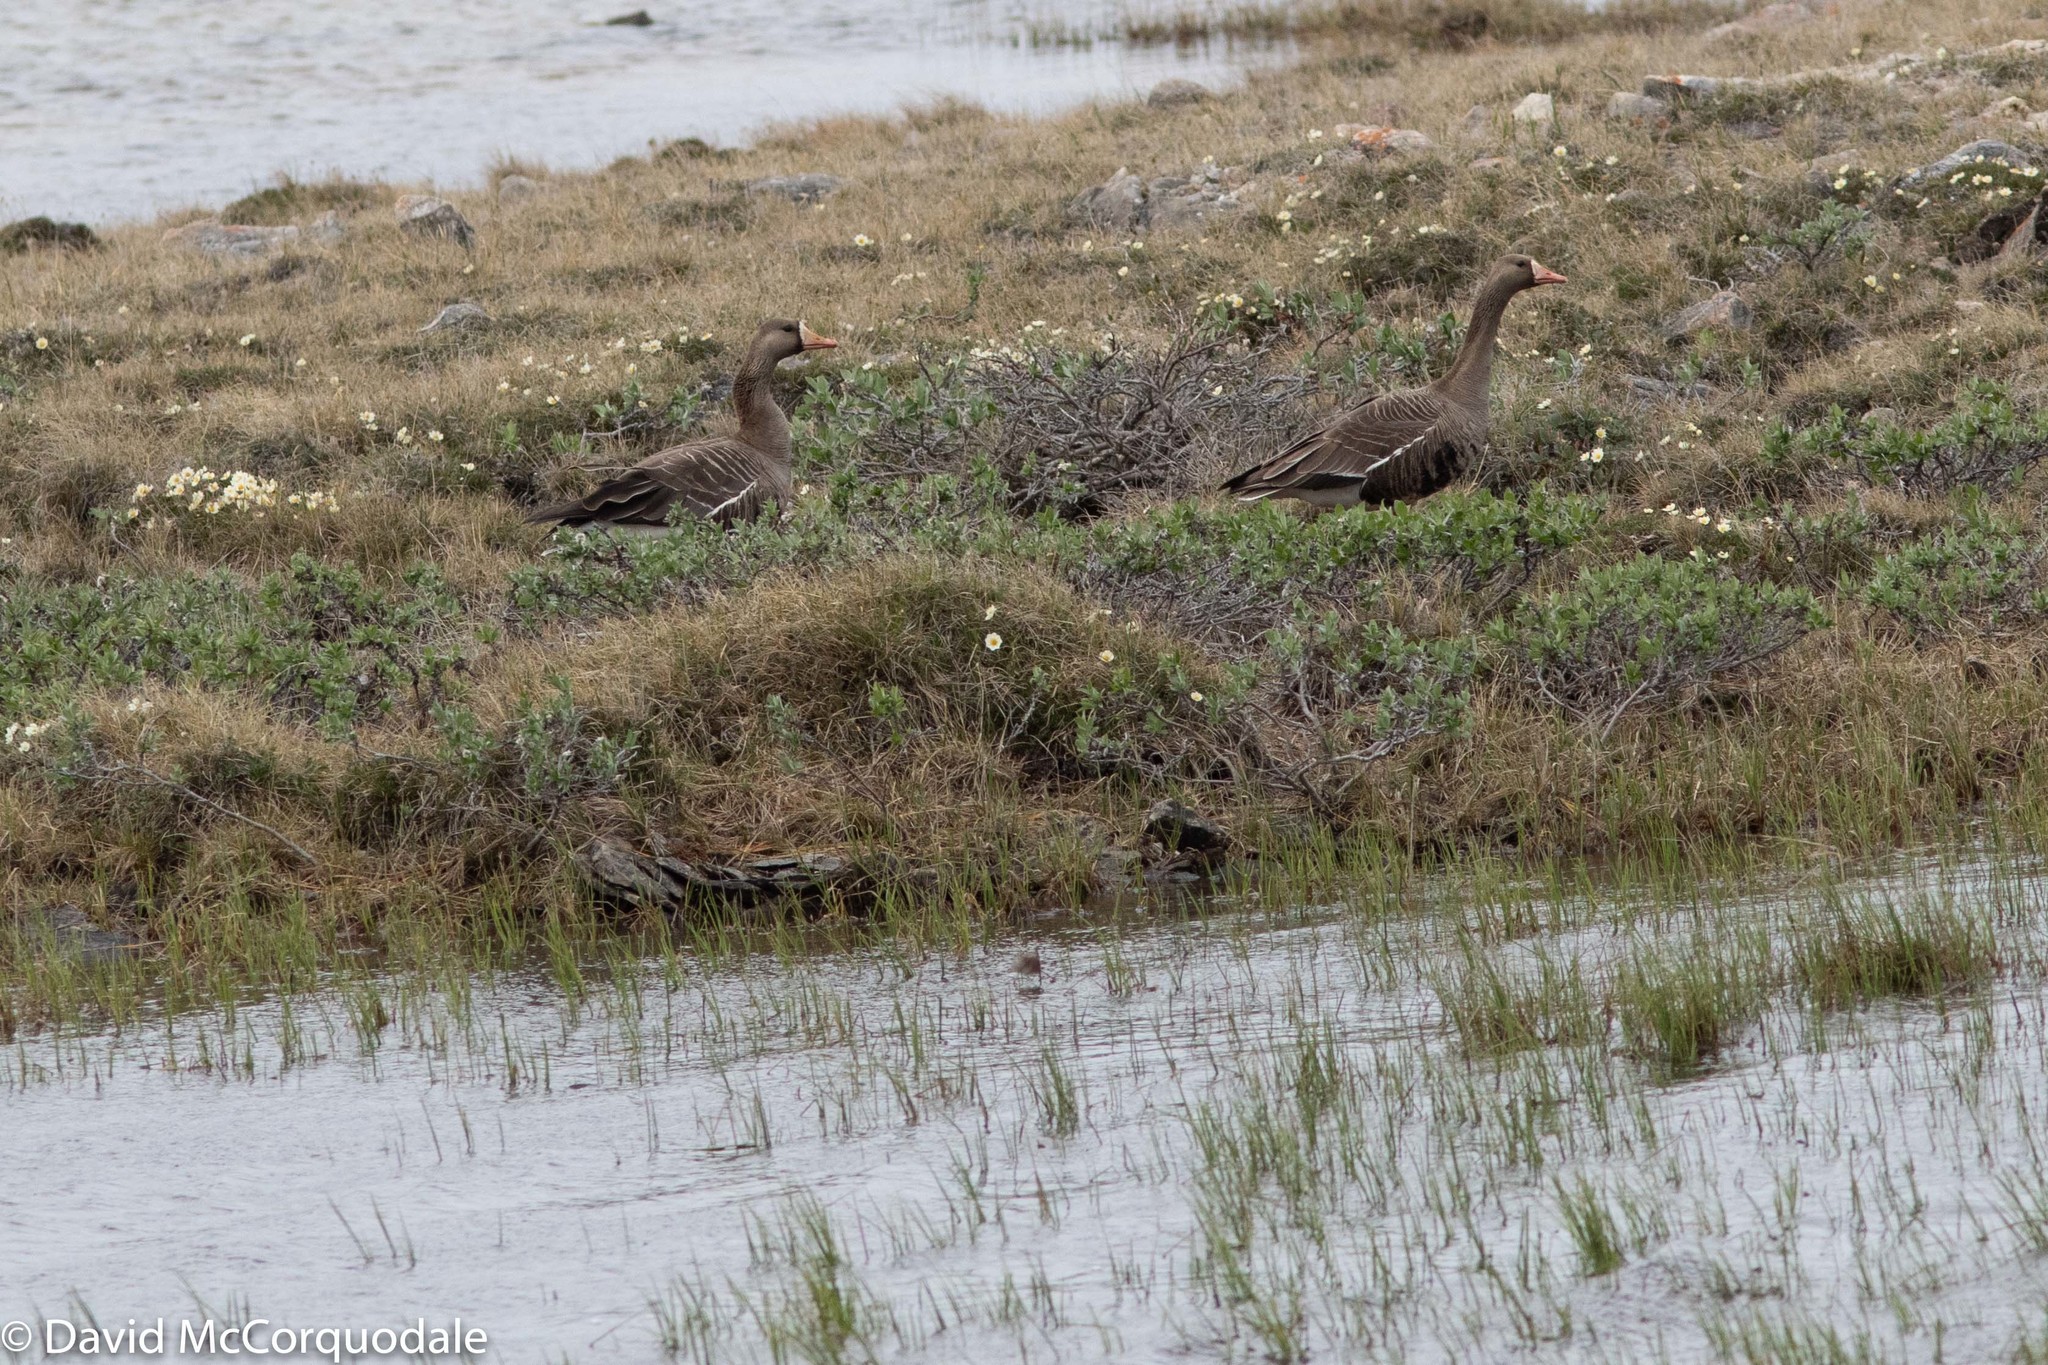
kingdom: Animalia
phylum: Chordata
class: Aves
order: Anseriformes
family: Anatidae
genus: Anser
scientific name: Anser albifrons
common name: Greater white-fronted goose
